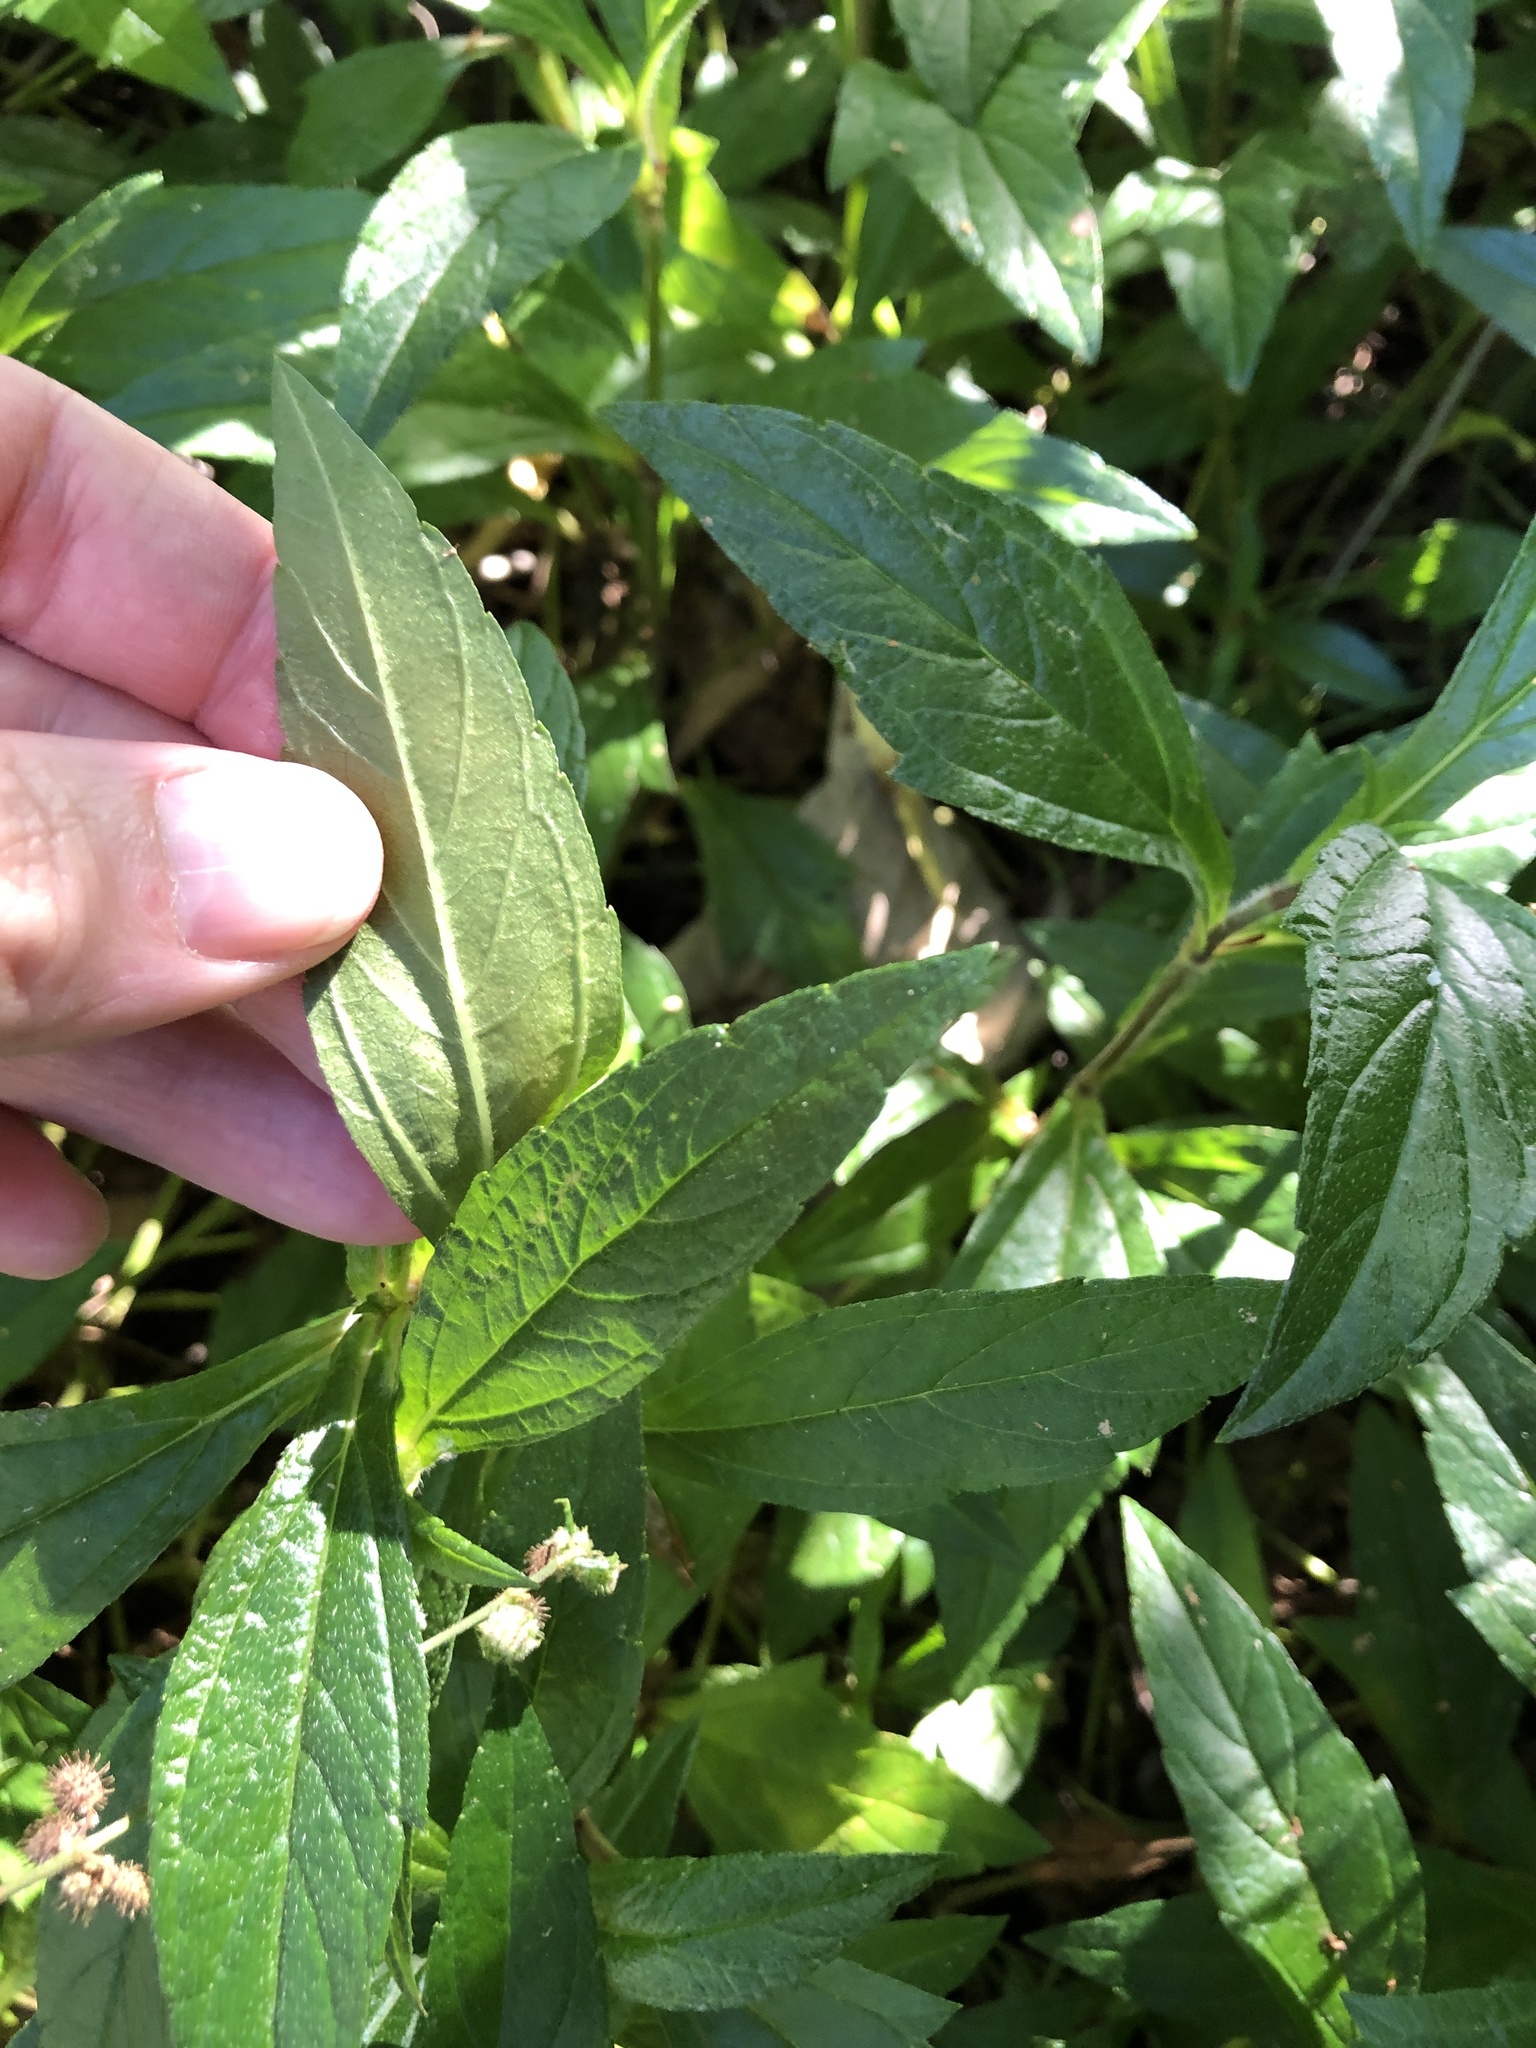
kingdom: Plantae
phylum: Tracheophyta
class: Magnoliopsida
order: Asterales
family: Asteraceae
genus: Sphagneticola
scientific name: Sphagneticola trilobata
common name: Bay biscayne creeping-oxeye
